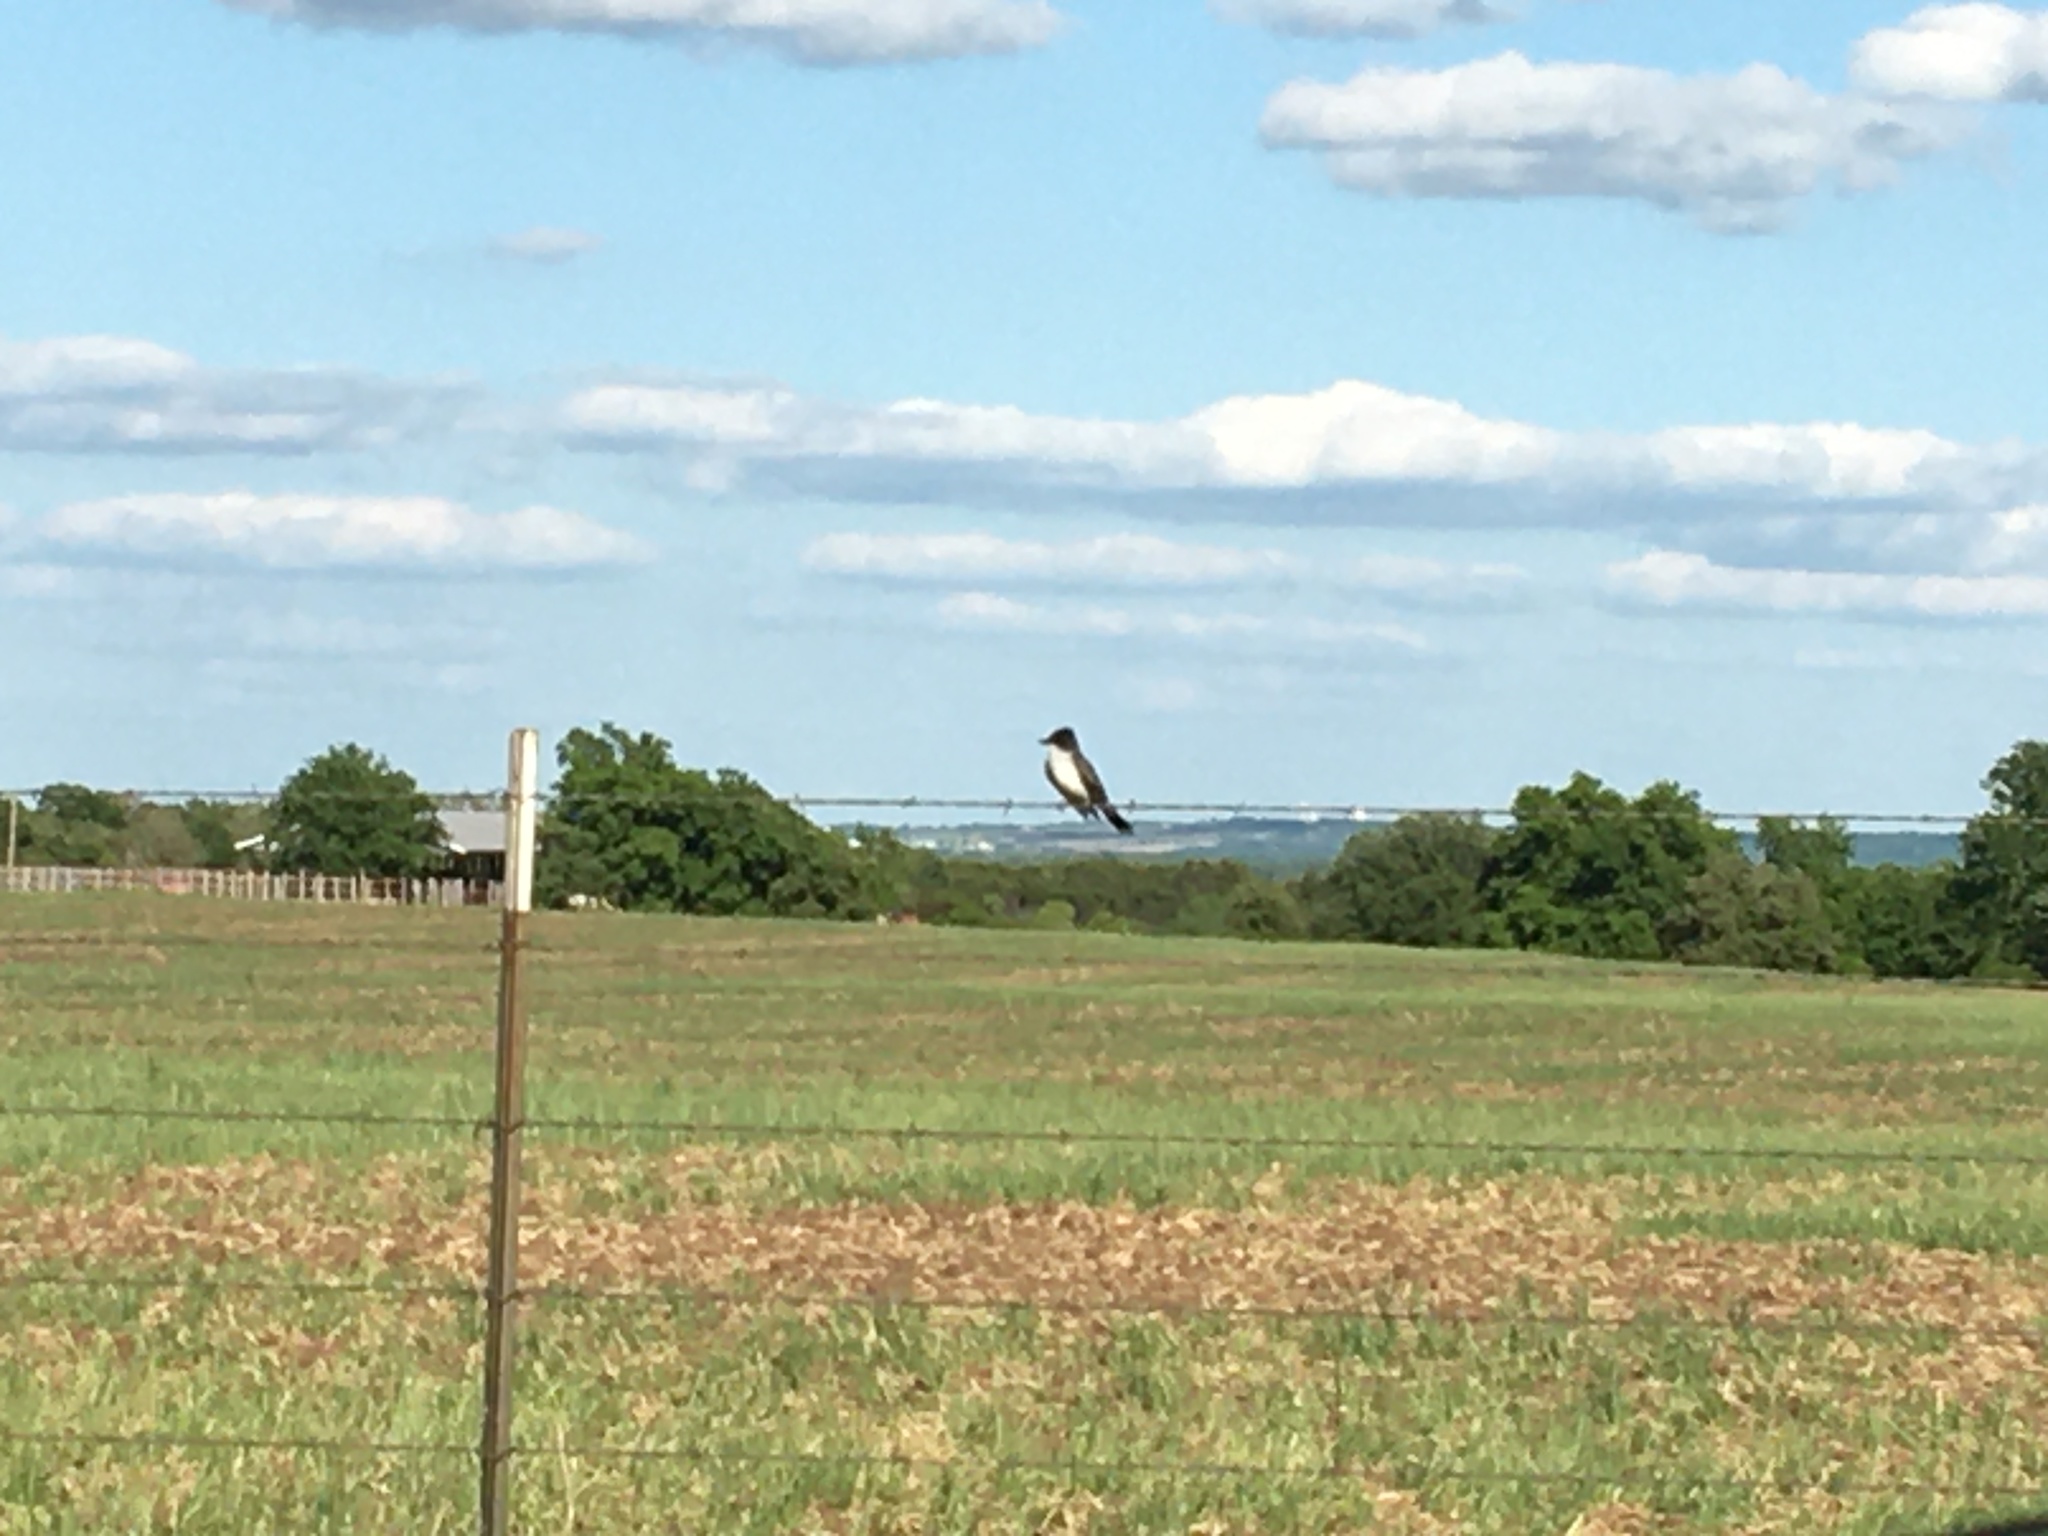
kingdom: Animalia
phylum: Chordata
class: Aves
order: Passeriformes
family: Tyrannidae
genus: Tyrannus
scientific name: Tyrannus tyrannus
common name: Eastern kingbird
